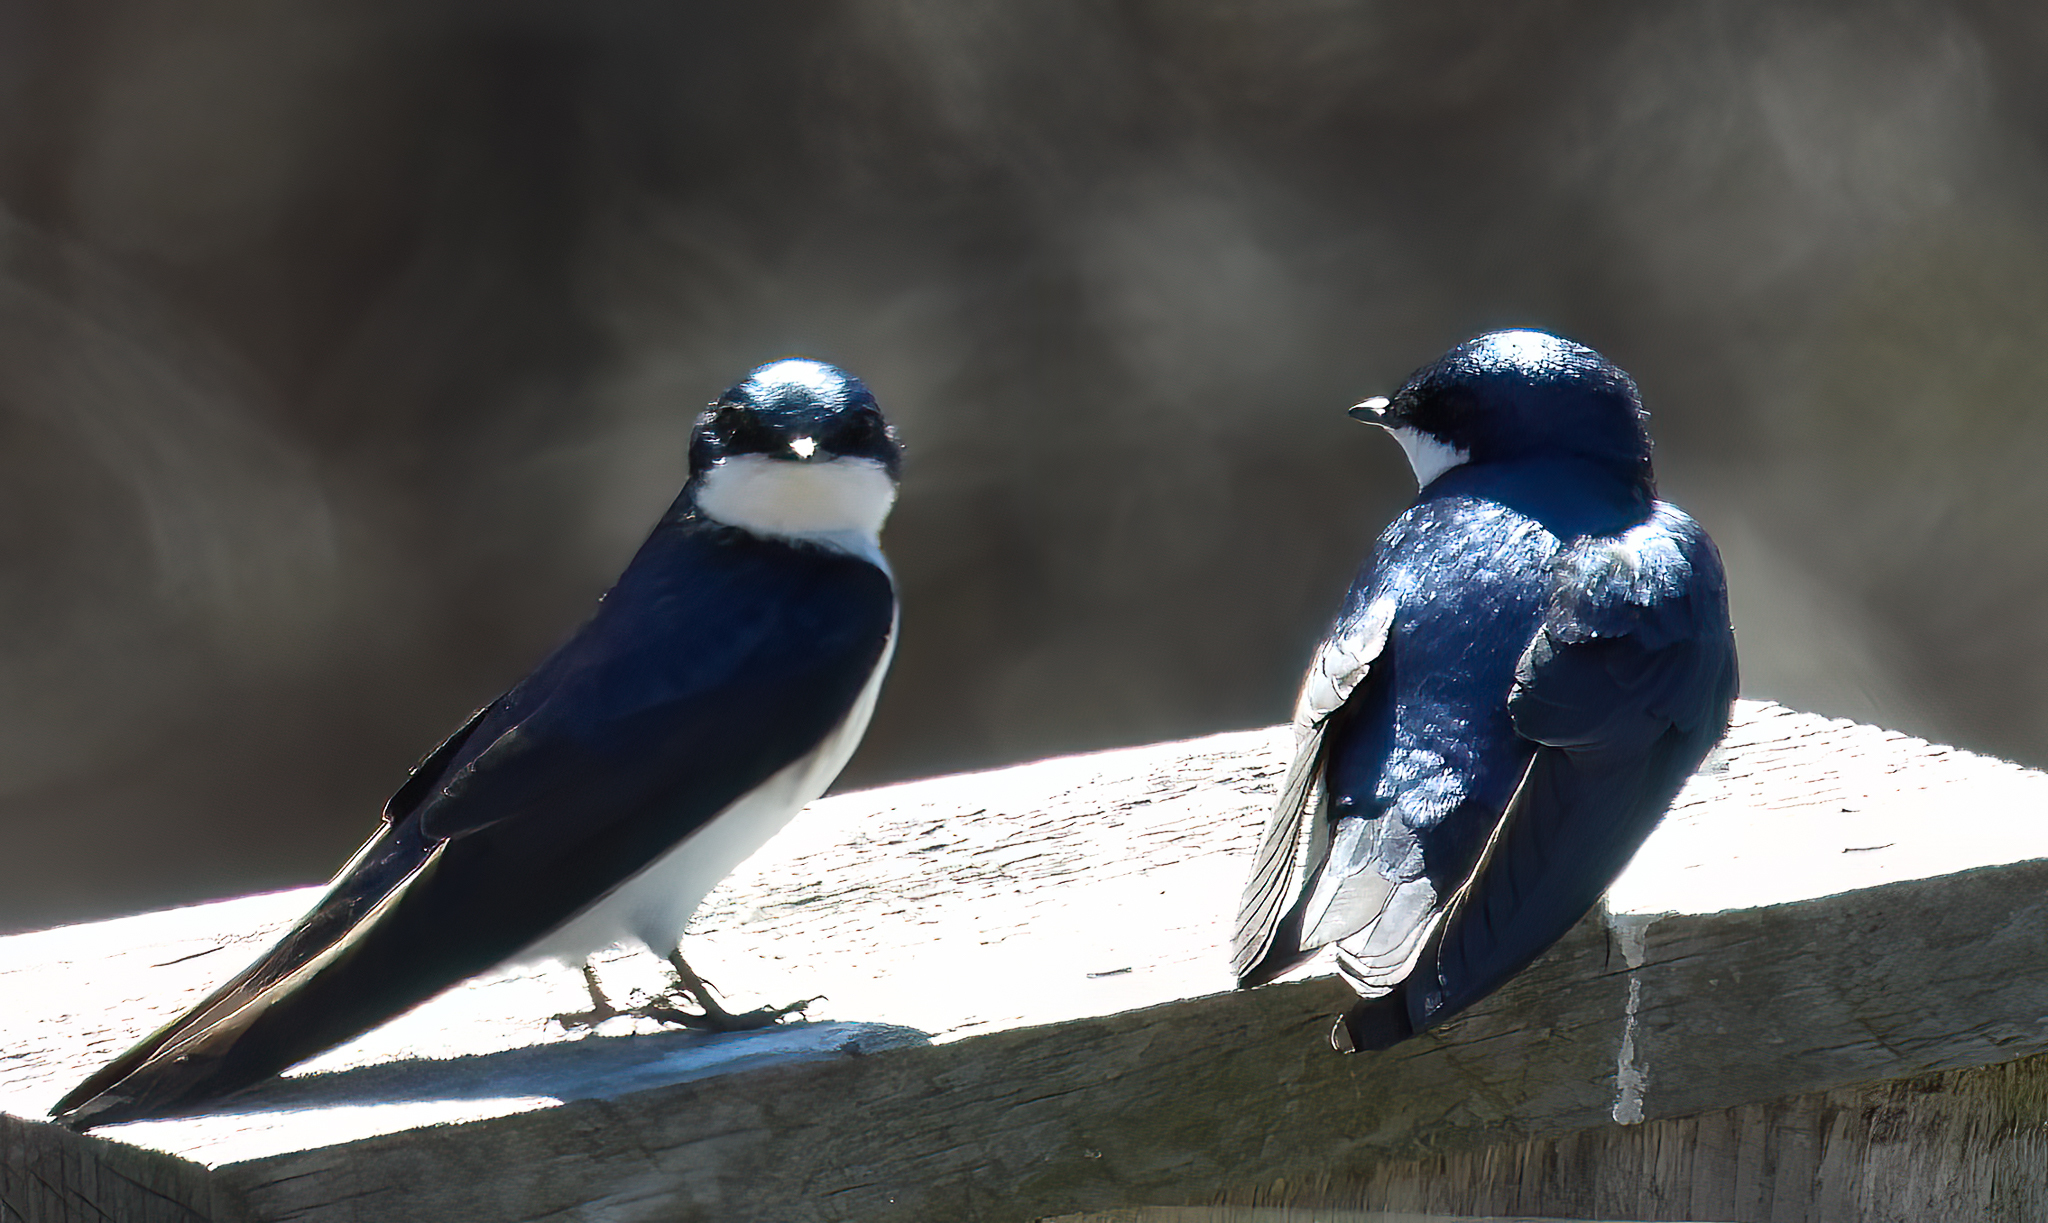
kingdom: Animalia
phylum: Chordata
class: Aves
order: Passeriformes
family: Hirundinidae
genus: Tachycineta
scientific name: Tachycineta bicolor
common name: Tree swallow
